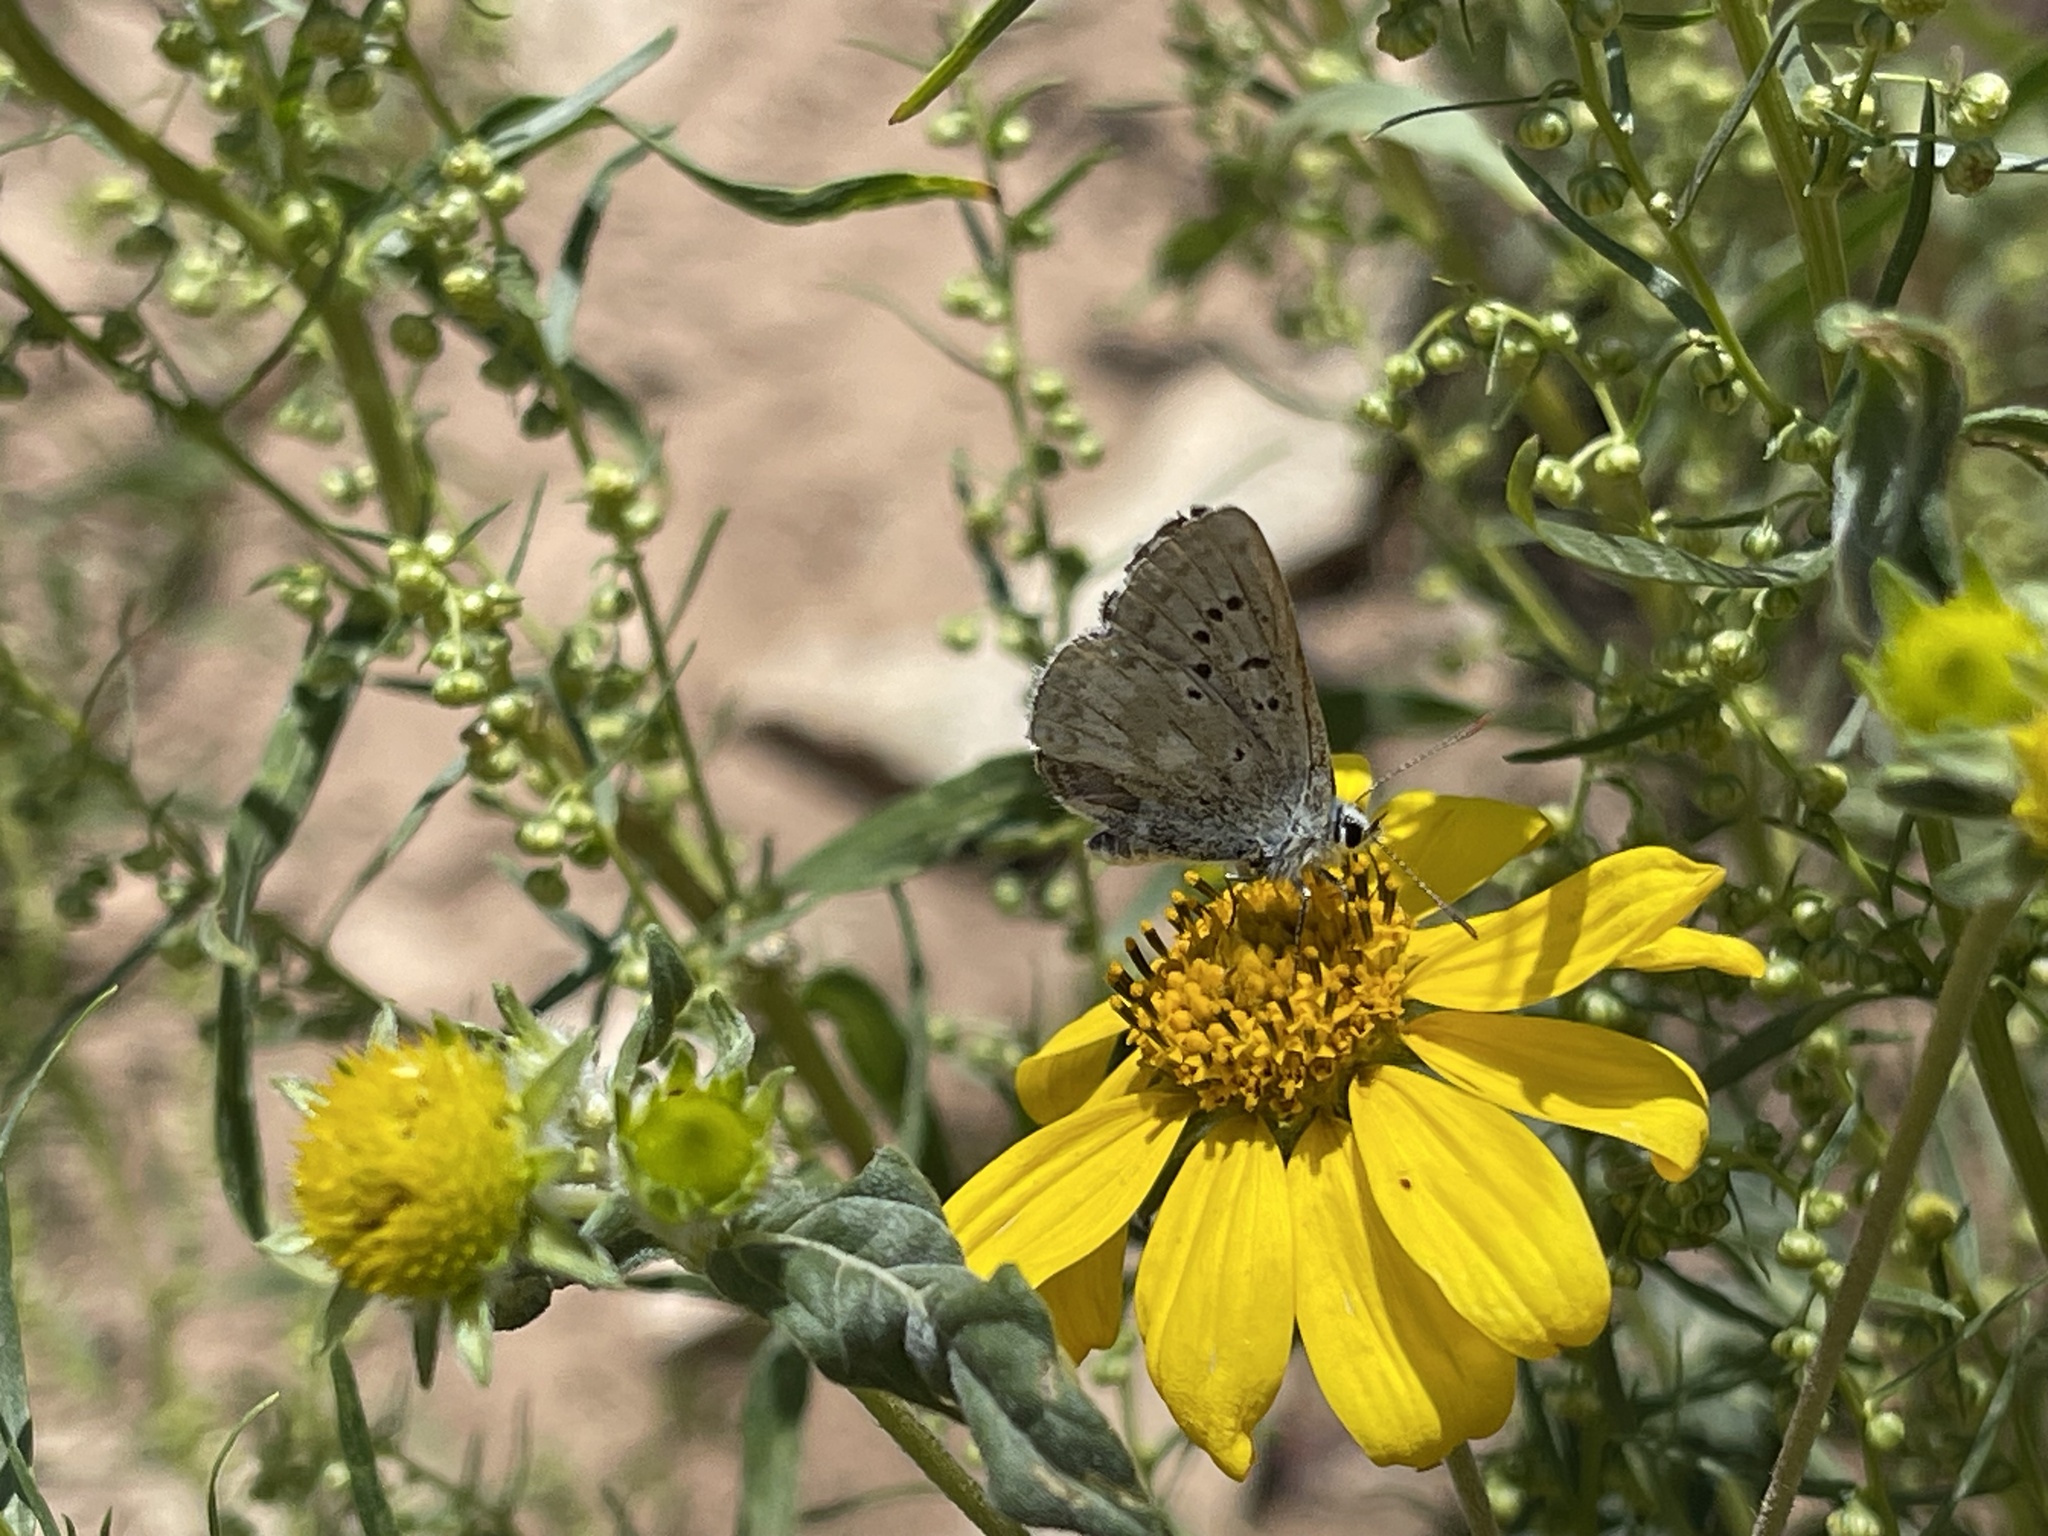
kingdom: Animalia
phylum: Arthropoda
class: Insecta
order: Lepidoptera
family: Lycaenidae
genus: Agriades
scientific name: Agriades glandon
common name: Glandon blue
